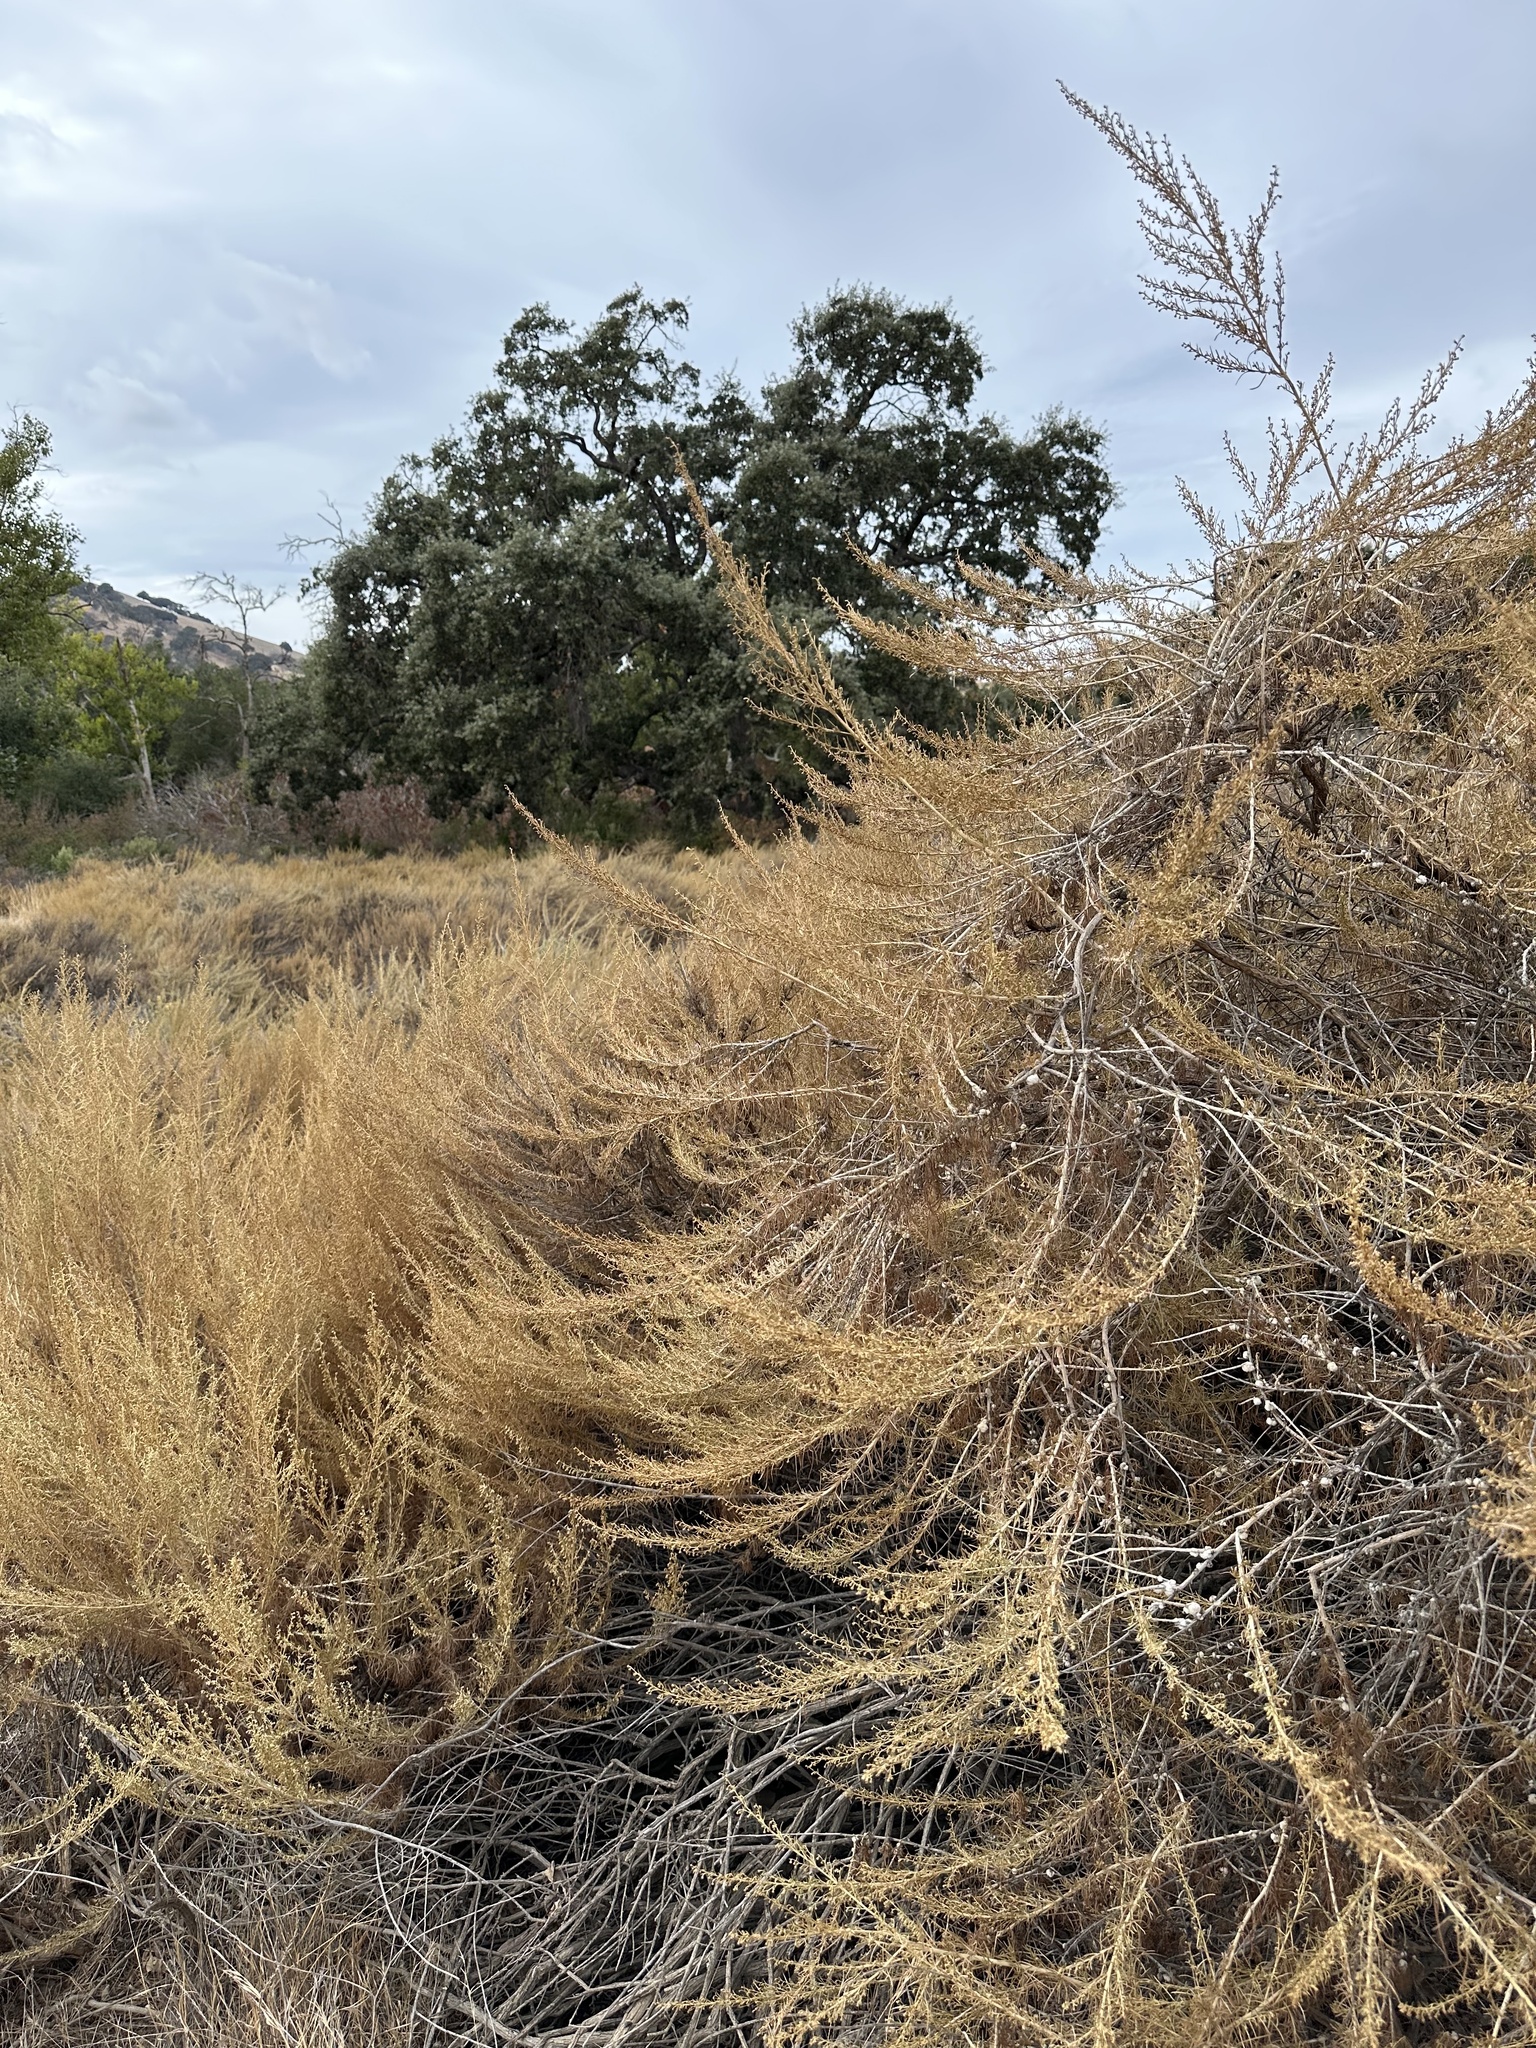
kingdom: Plantae
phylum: Tracheophyta
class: Magnoliopsida
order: Asterales
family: Asteraceae
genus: Artemisia
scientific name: Artemisia californica
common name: California sagebrush
